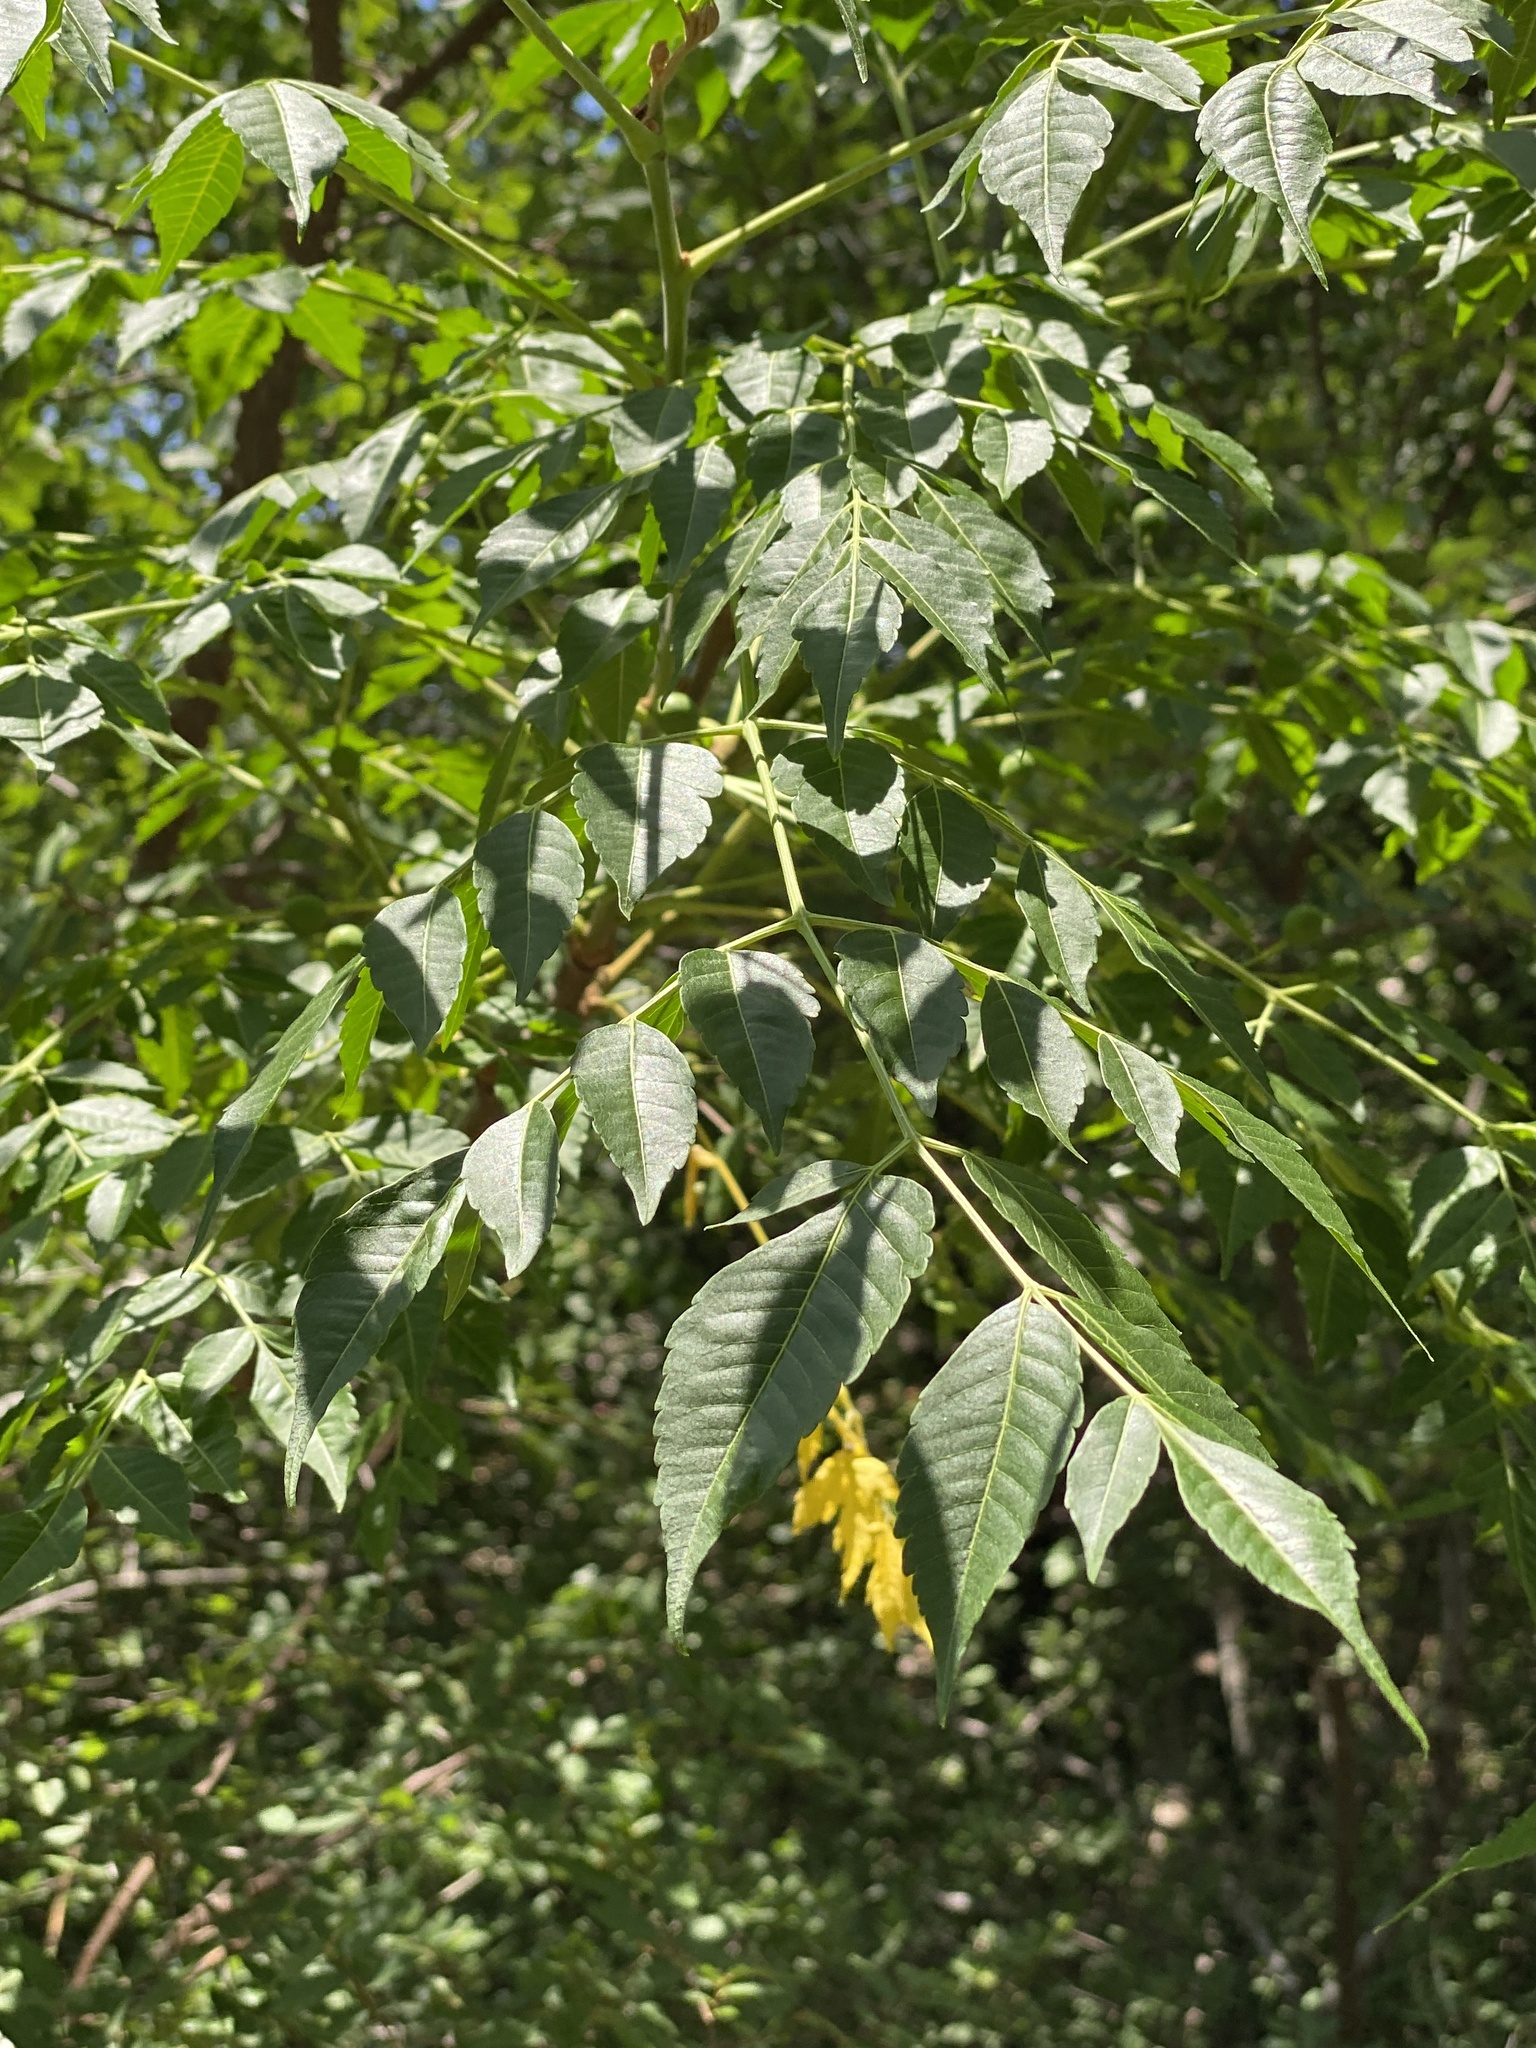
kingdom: Plantae
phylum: Tracheophyta
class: Magnoliopsida
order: Sapindales
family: Meliaceae
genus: Melia
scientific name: Melia azedarach
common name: Chinaberrytree
